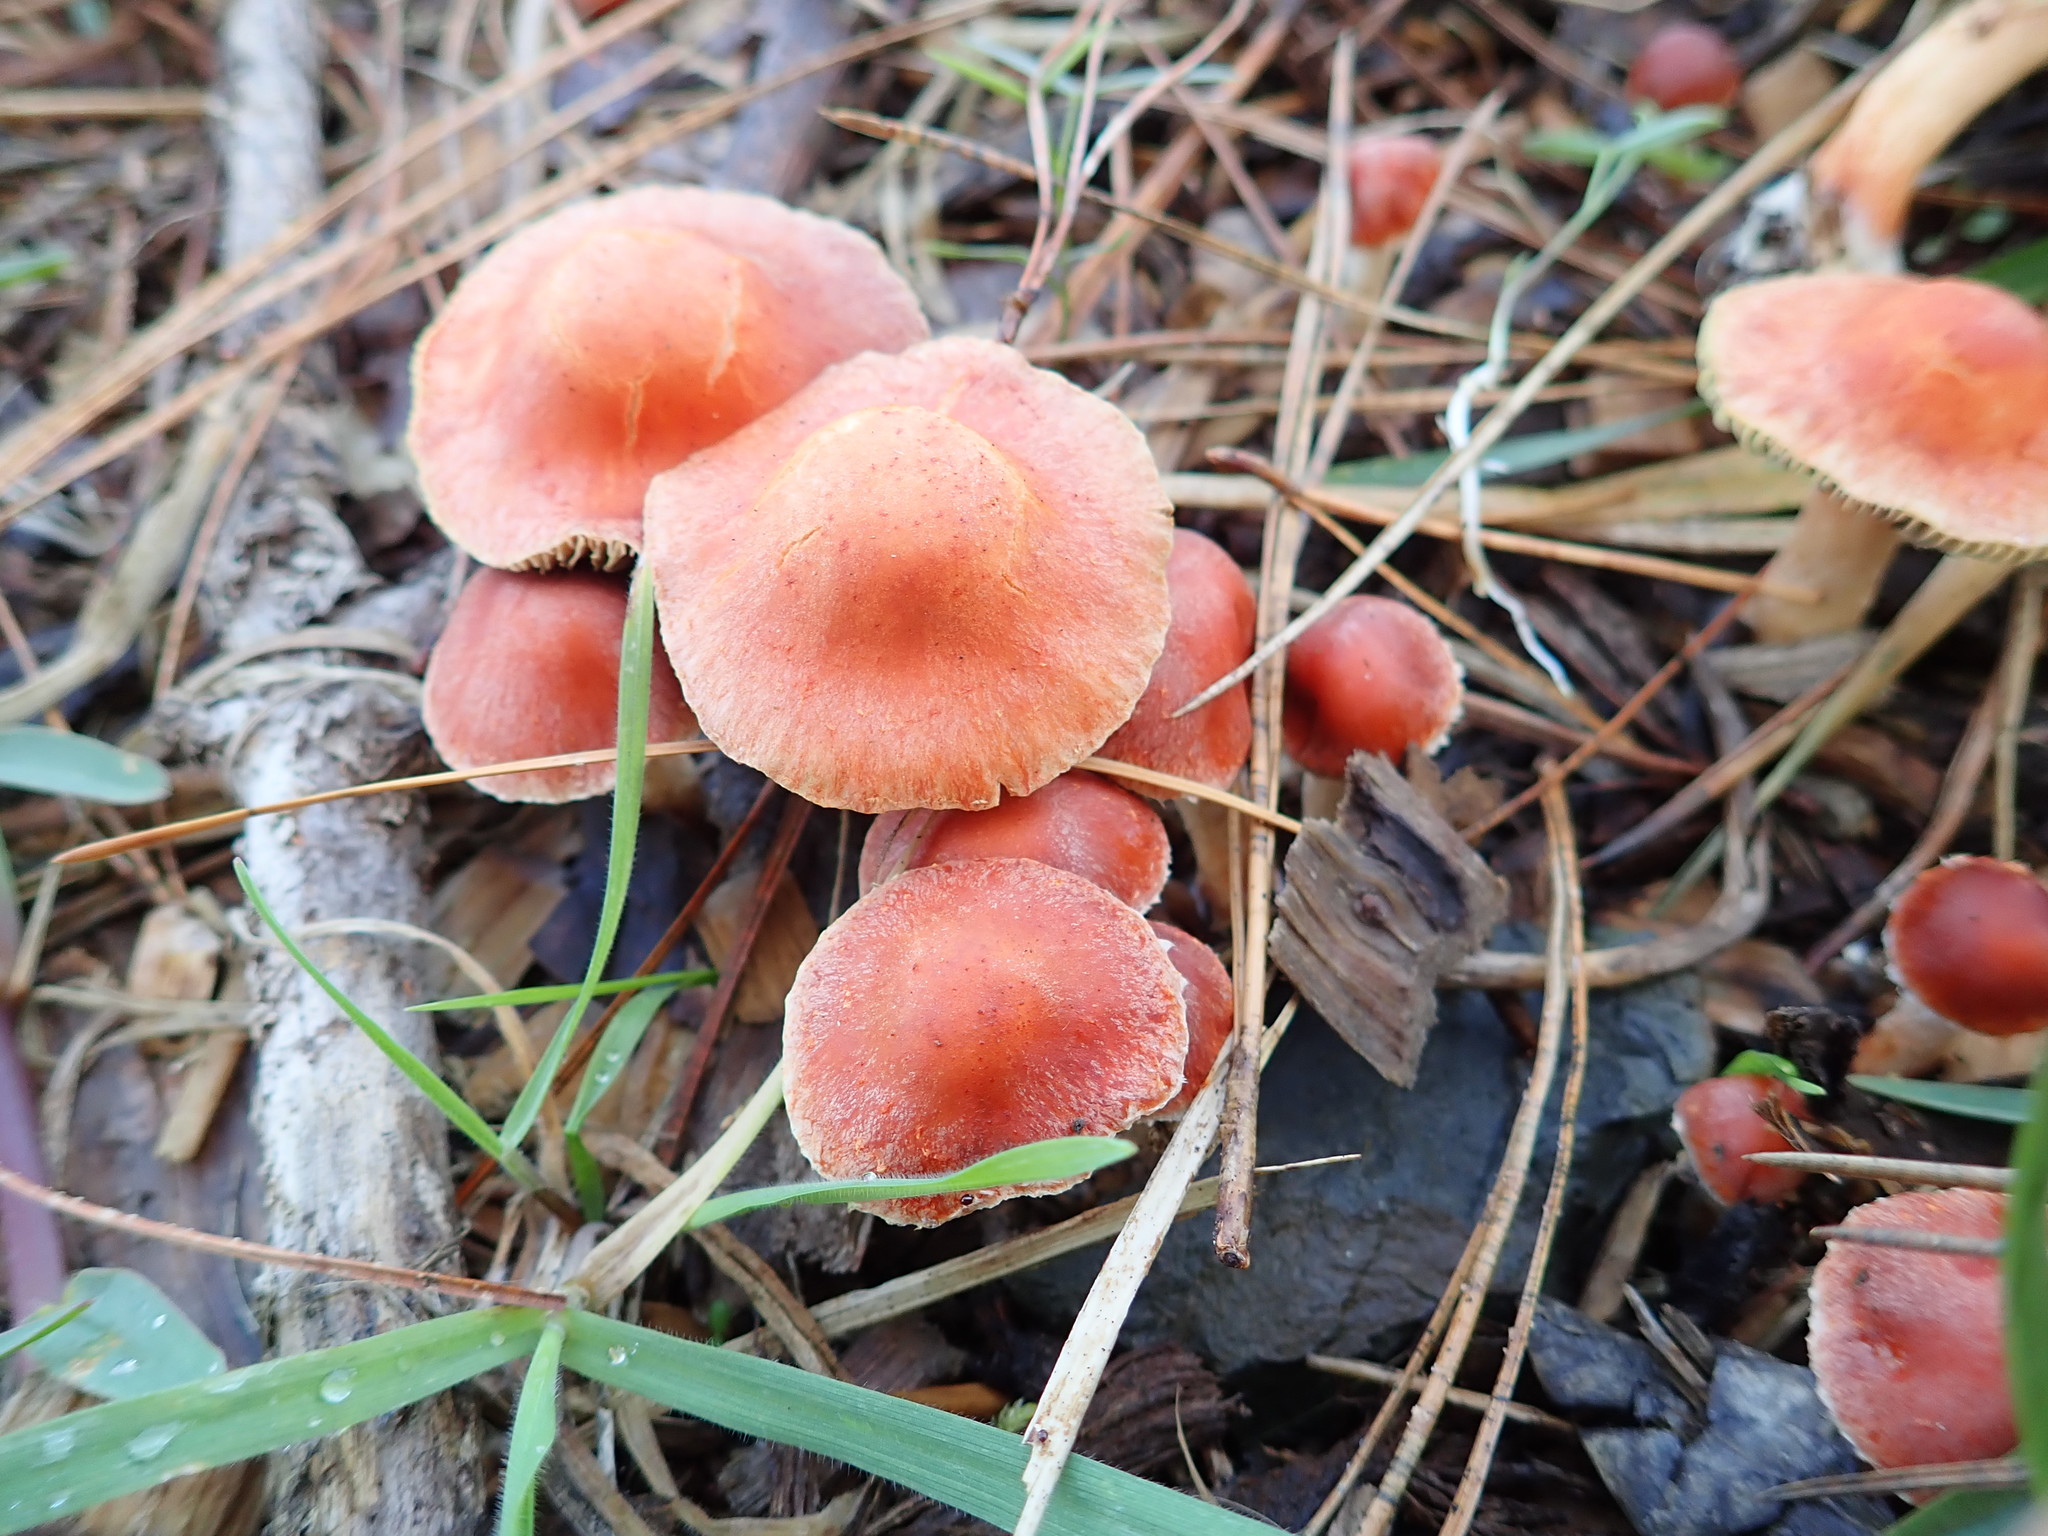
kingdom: Fungi
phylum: Basidiomycota
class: Agaricomycetes
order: Agaricales
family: Strophariaceae
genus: Leratiomyces
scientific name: Leratiomyces ceres
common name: Redlead roundhead
